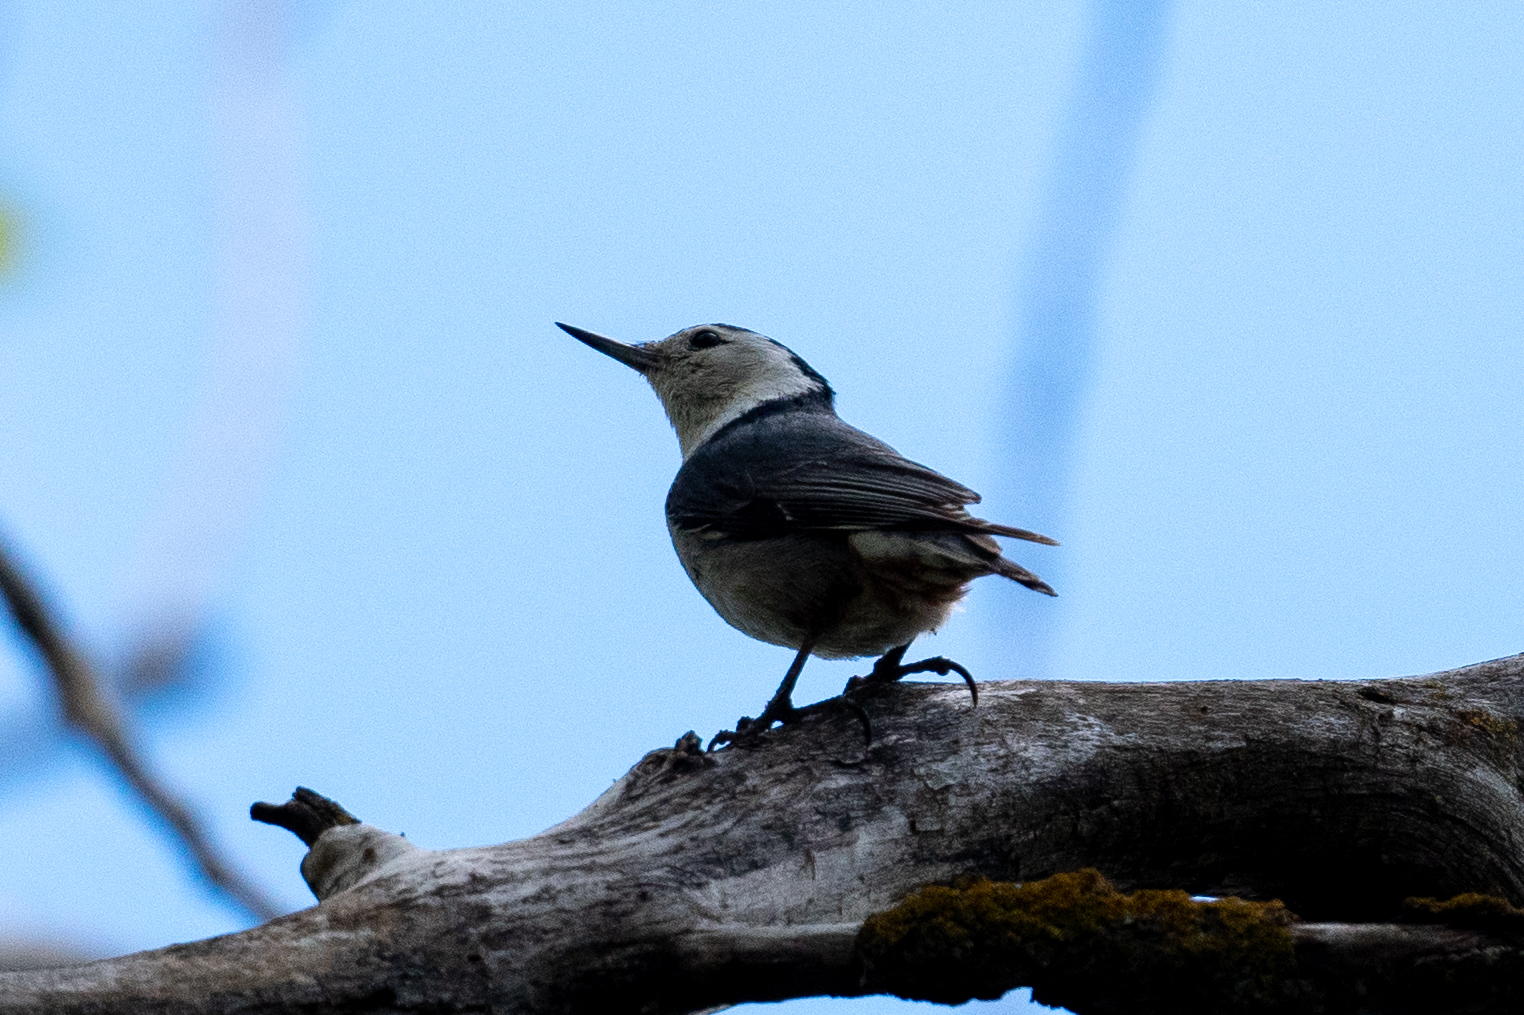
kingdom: Animalia
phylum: Chordata
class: Aves
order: Passeriformes
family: Sittidae
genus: Sitta
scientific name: Sitta carolinensis
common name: White-breasted nuthatch
